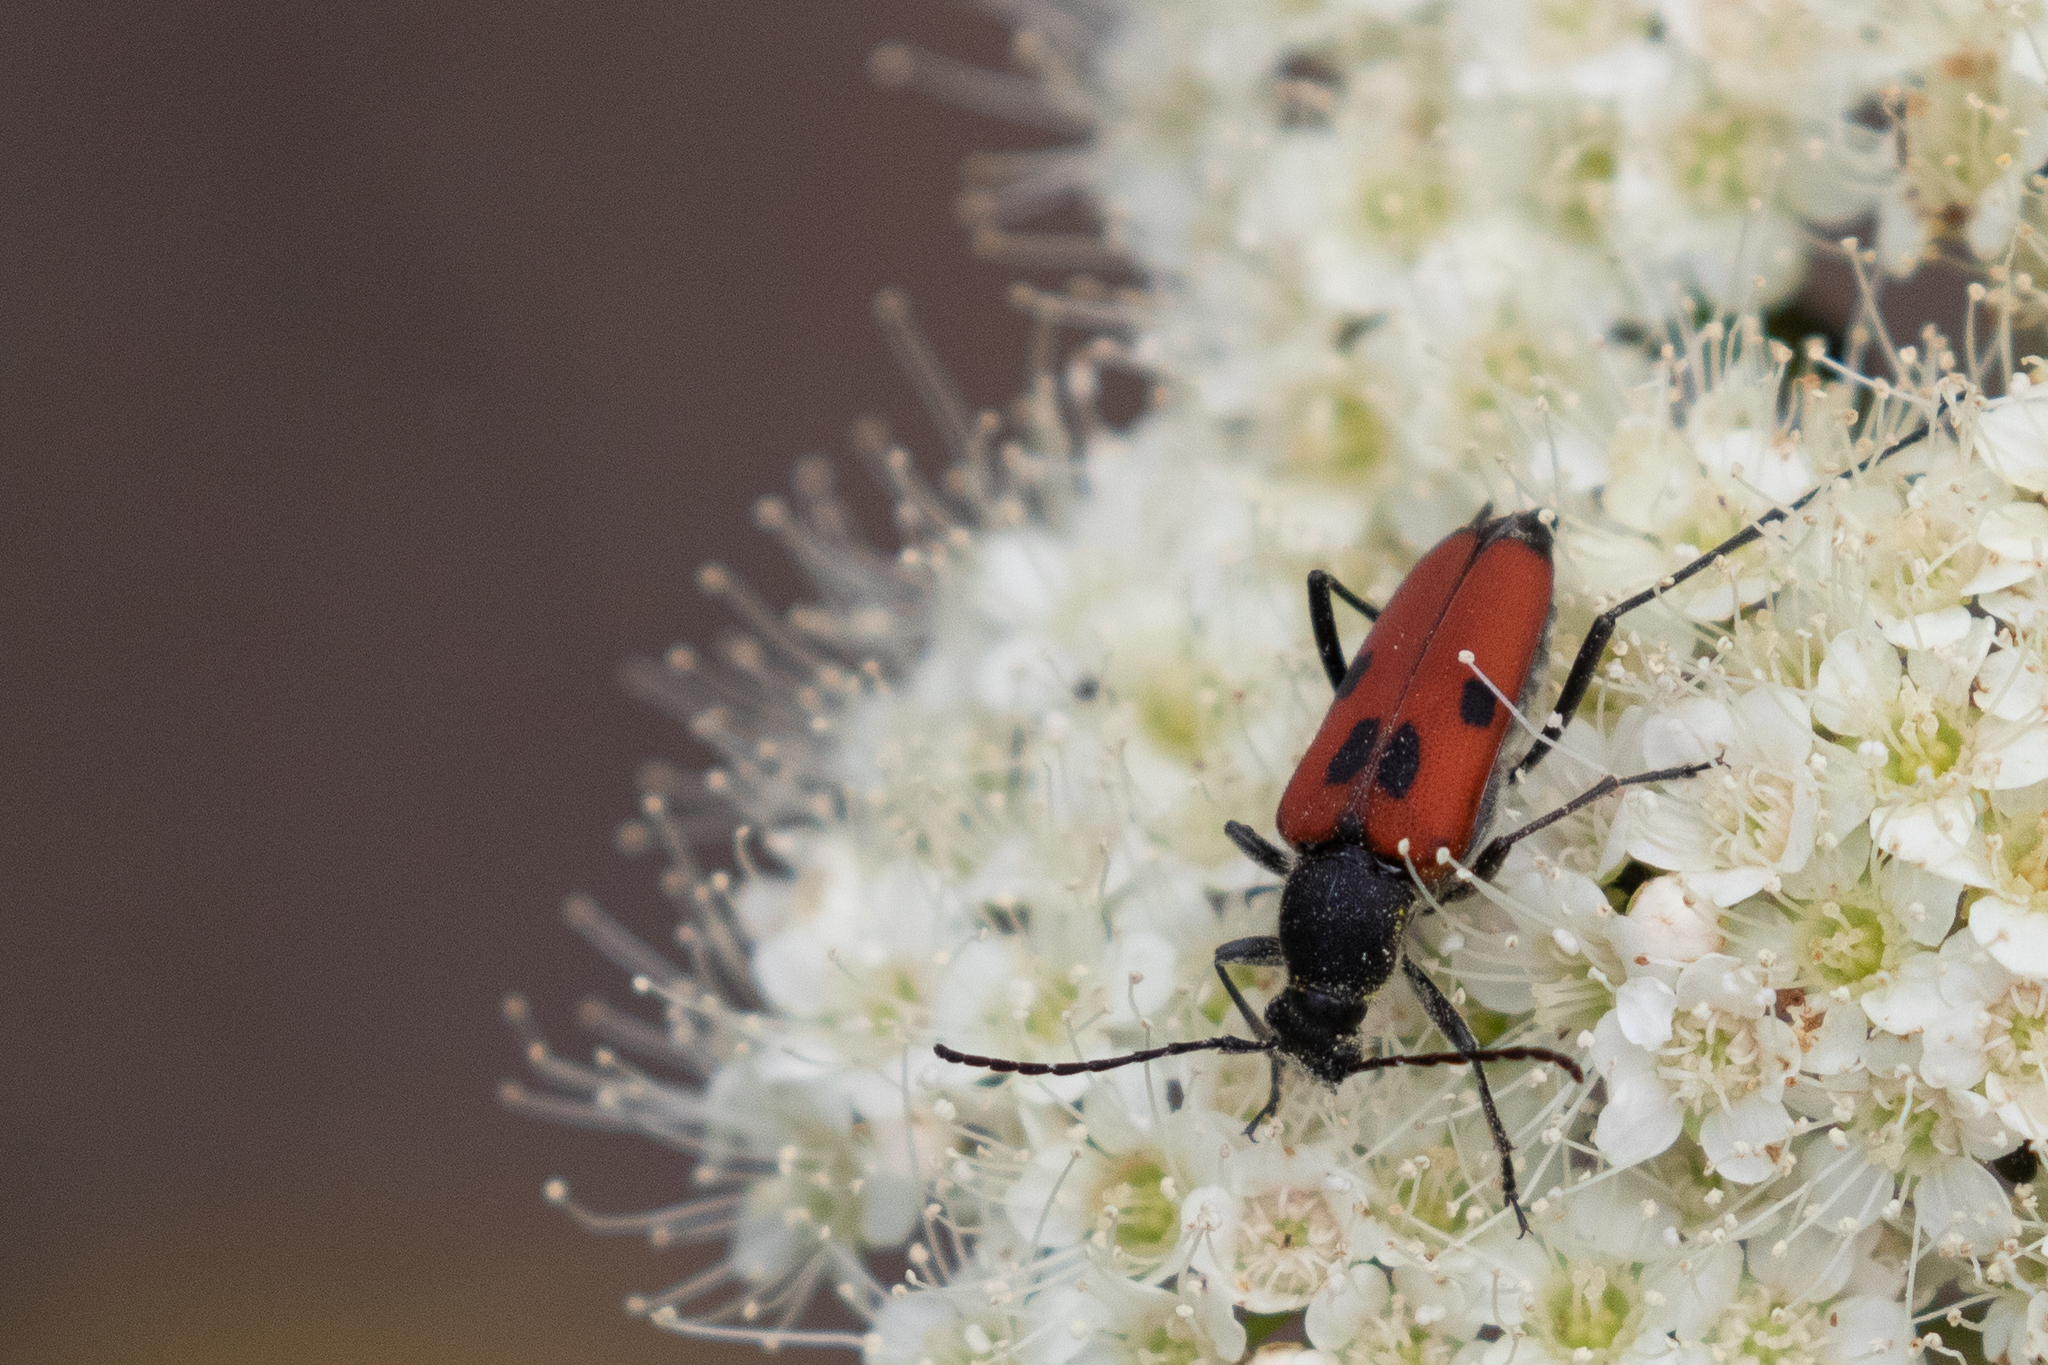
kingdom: Animalia
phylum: Arthropoda
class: Insecta
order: Coleoptera
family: Cerambycidae
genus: Anastrangalia
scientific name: Anastrangalia laetifica
